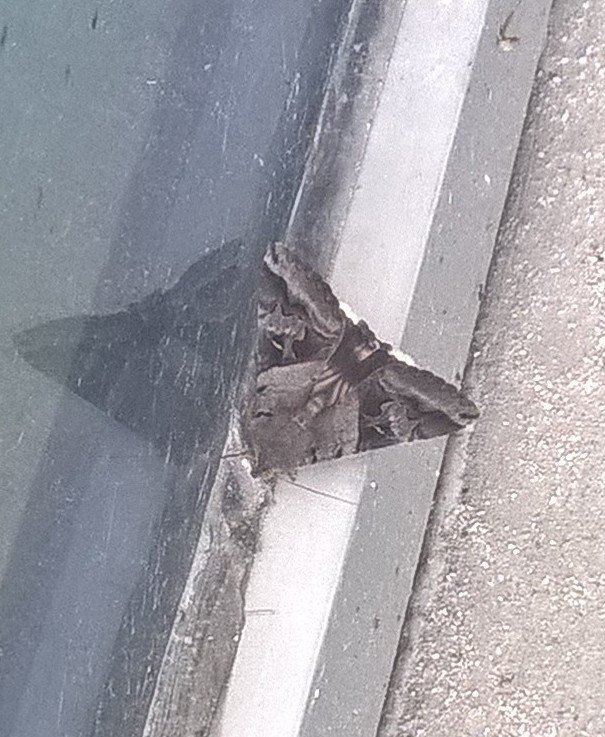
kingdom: Animalia
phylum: Arthropoda
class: Insecta
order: Lepidoptera
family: Erebidae
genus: Melipotis
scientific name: Melipotis indomita
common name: Moth
